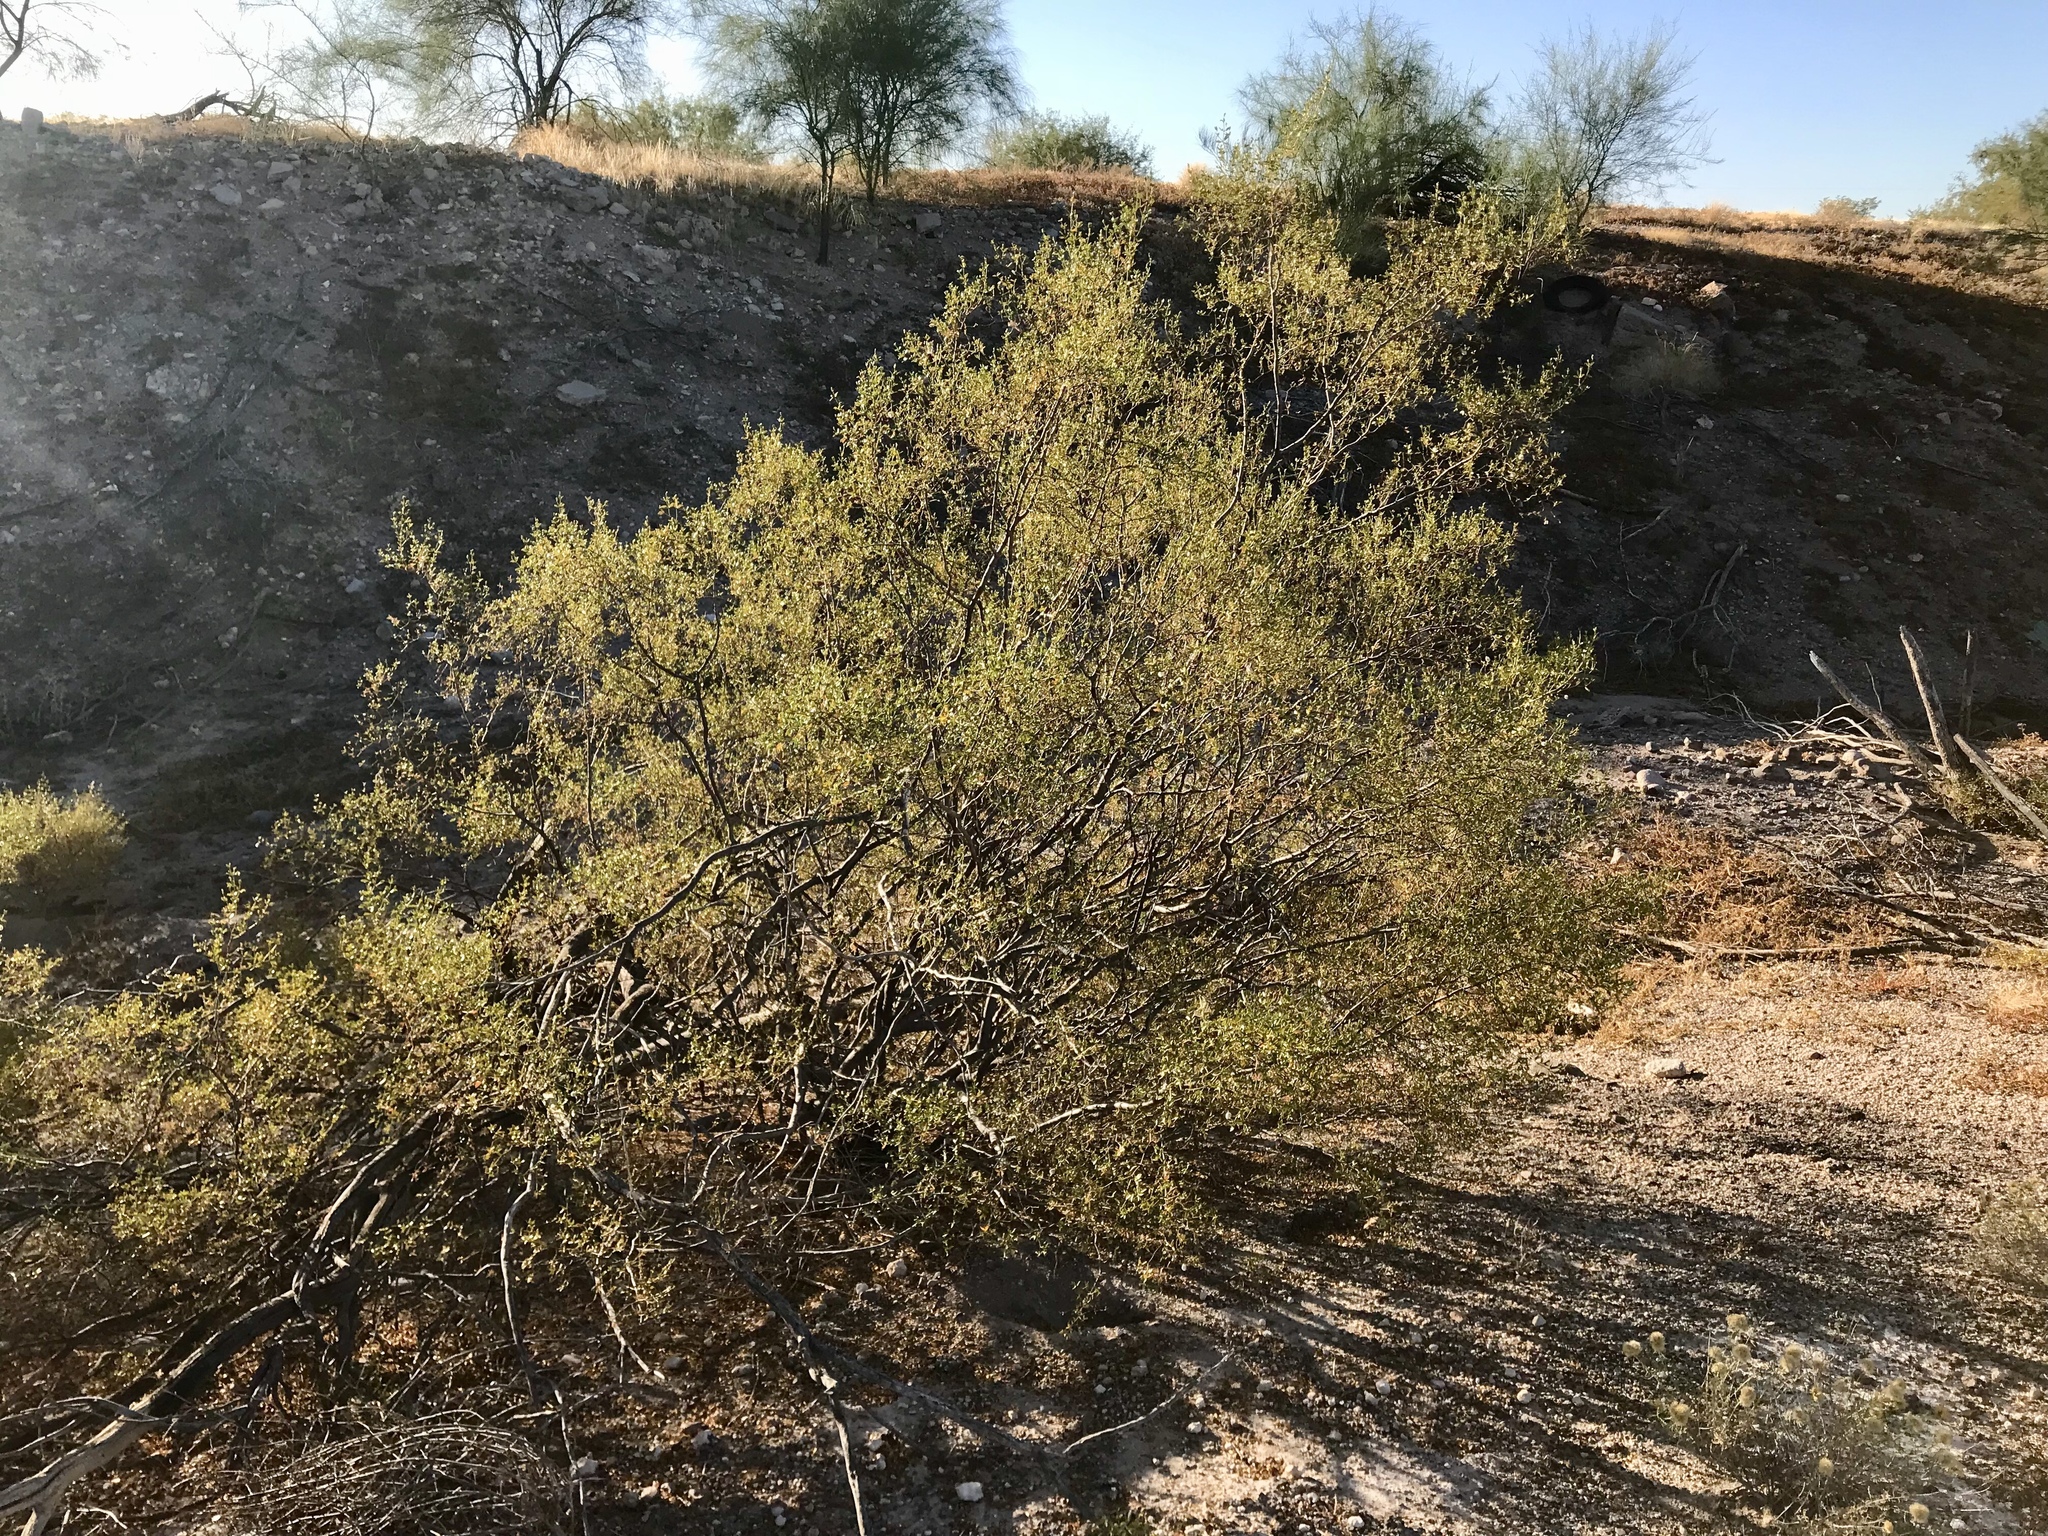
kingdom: Plantae
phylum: Tracheophyta
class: Magnoliopsida
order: Zygophyllales
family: Zygophyllaceae
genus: Larrea
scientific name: Larrea tridentata
